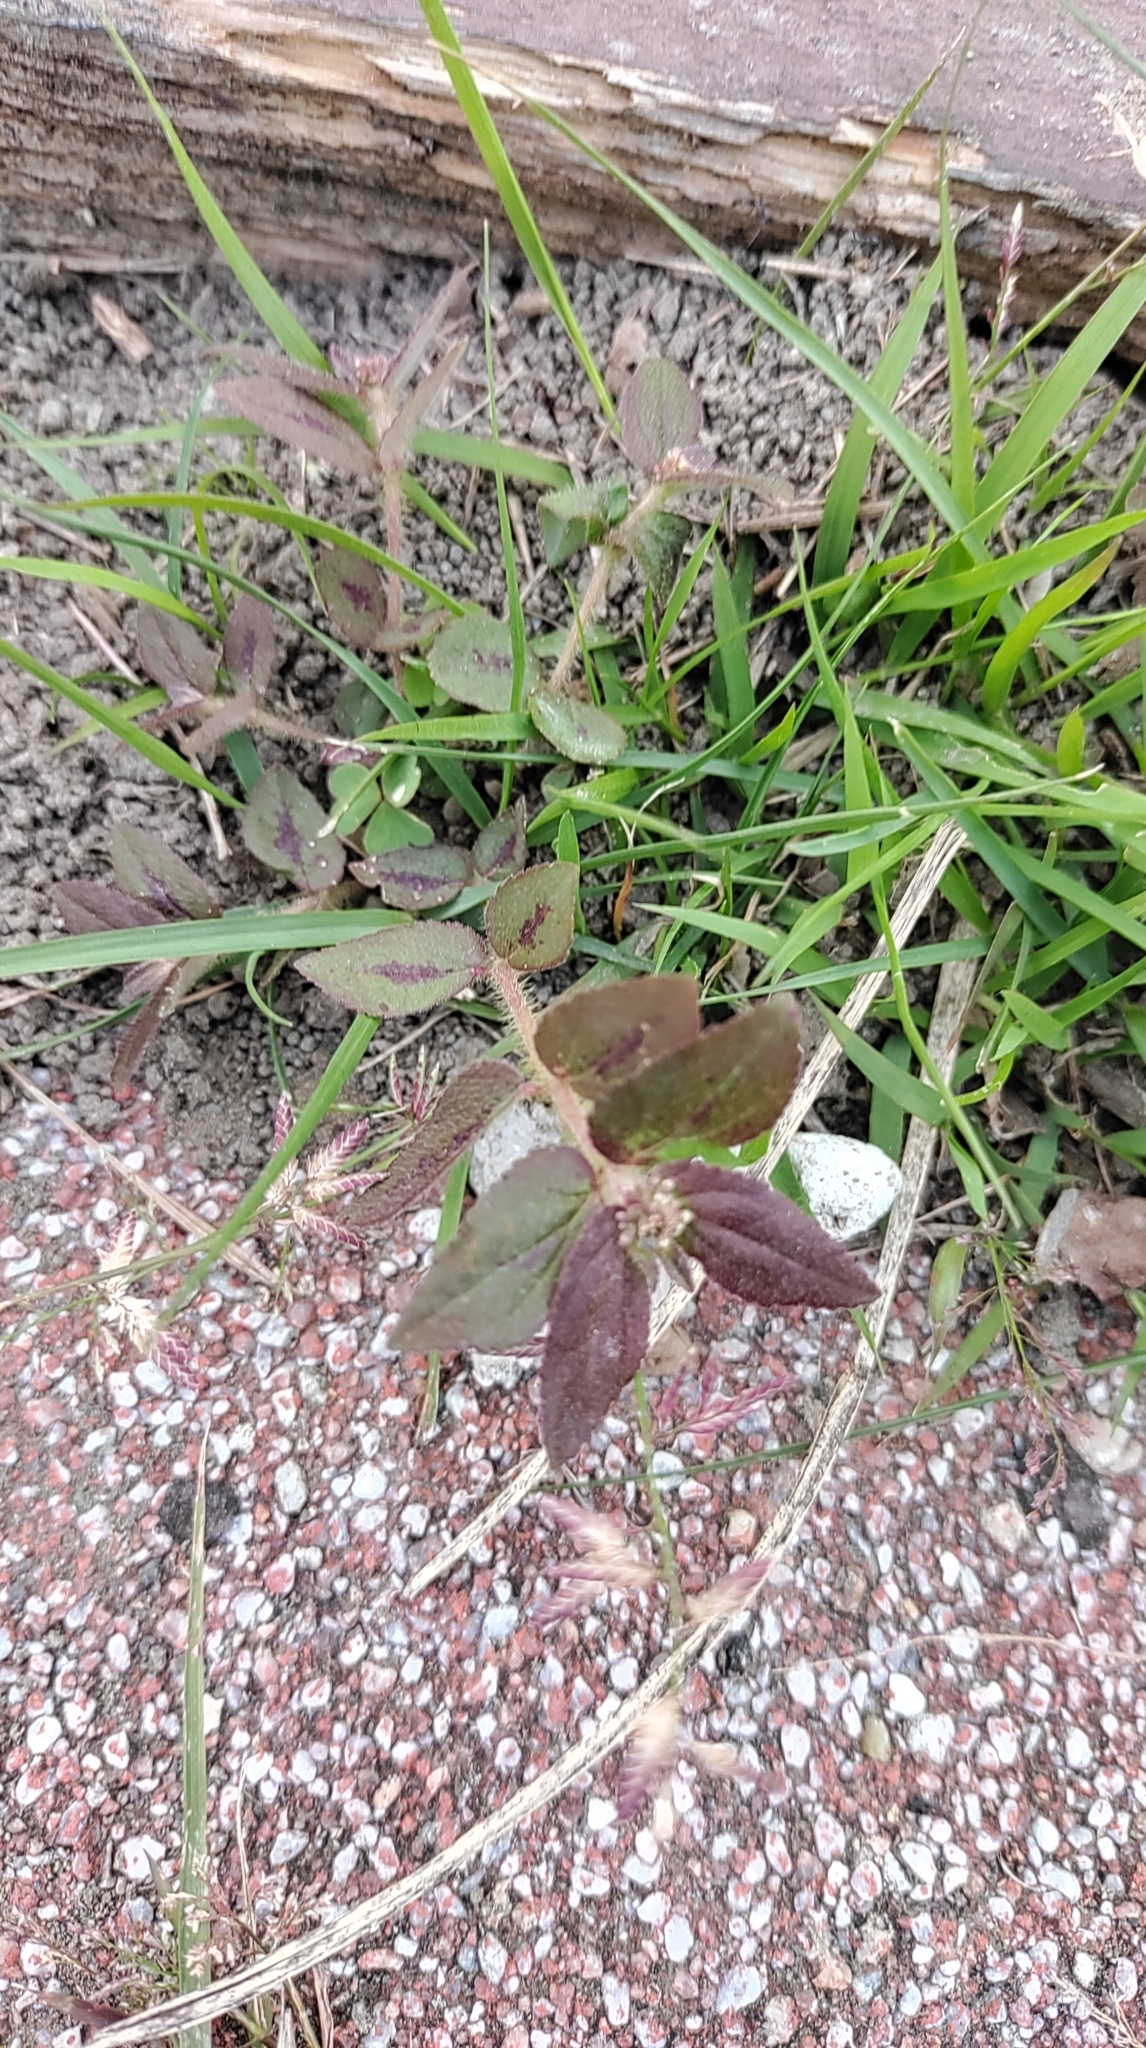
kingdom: Plantae
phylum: Tracheophyta
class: Magnoliopsida
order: Malpighiales
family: Euphorbiaceae
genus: Euphorbia
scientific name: Euphorbia hirta
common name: Pillpod sandmat
